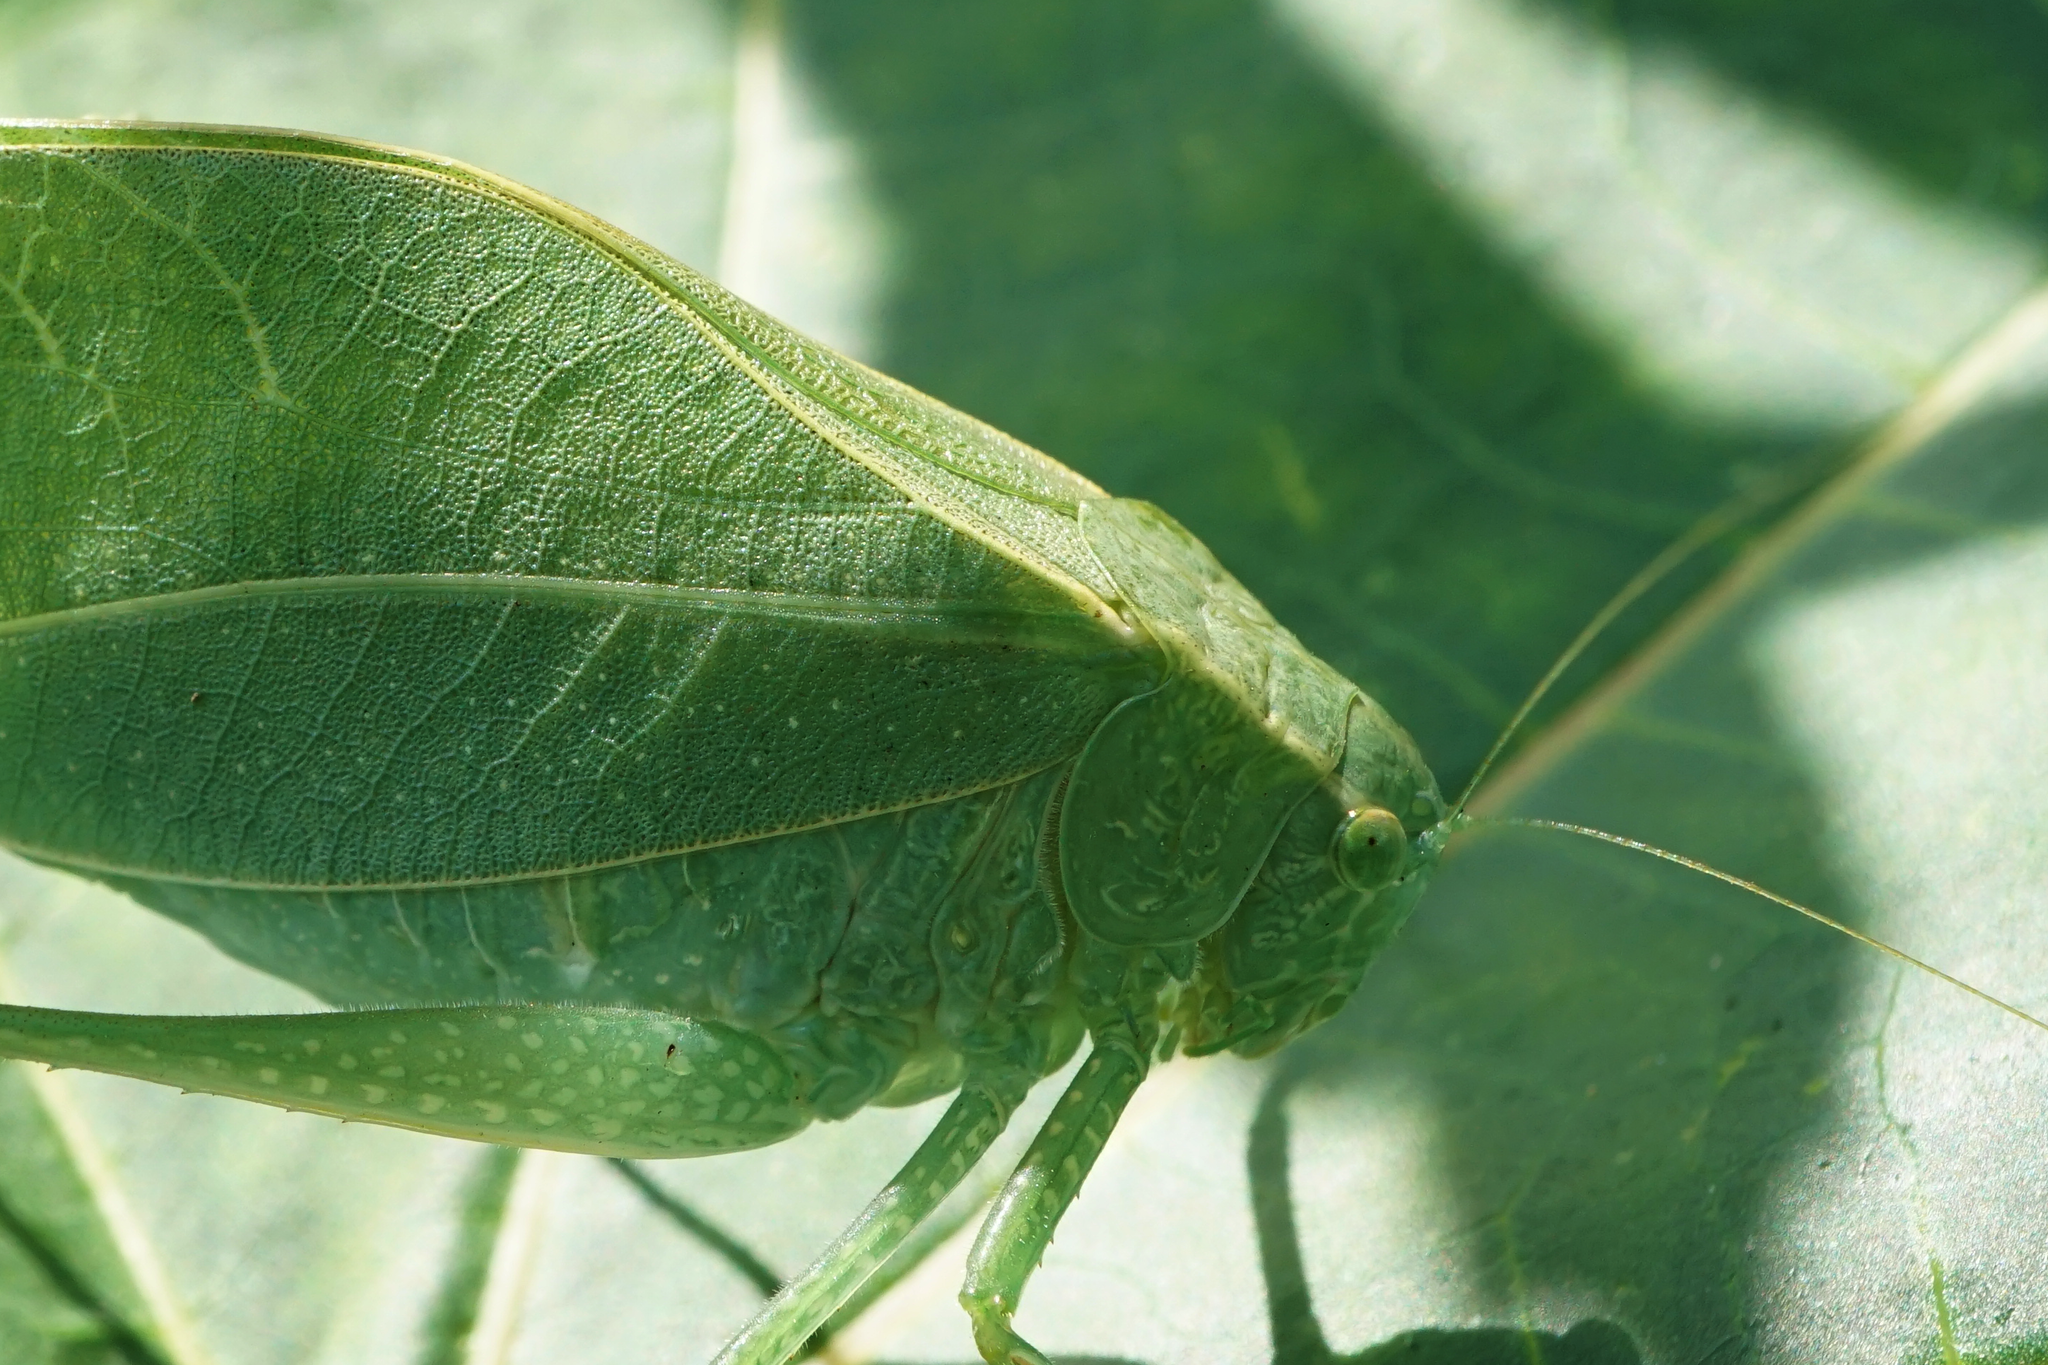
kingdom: Animalia
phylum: Arthropoda
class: Insecta
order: Orthoptera
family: Tettigoniidae
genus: Microcentrum
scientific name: Microcentrum rhombifolium
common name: Broad-winged katydid
